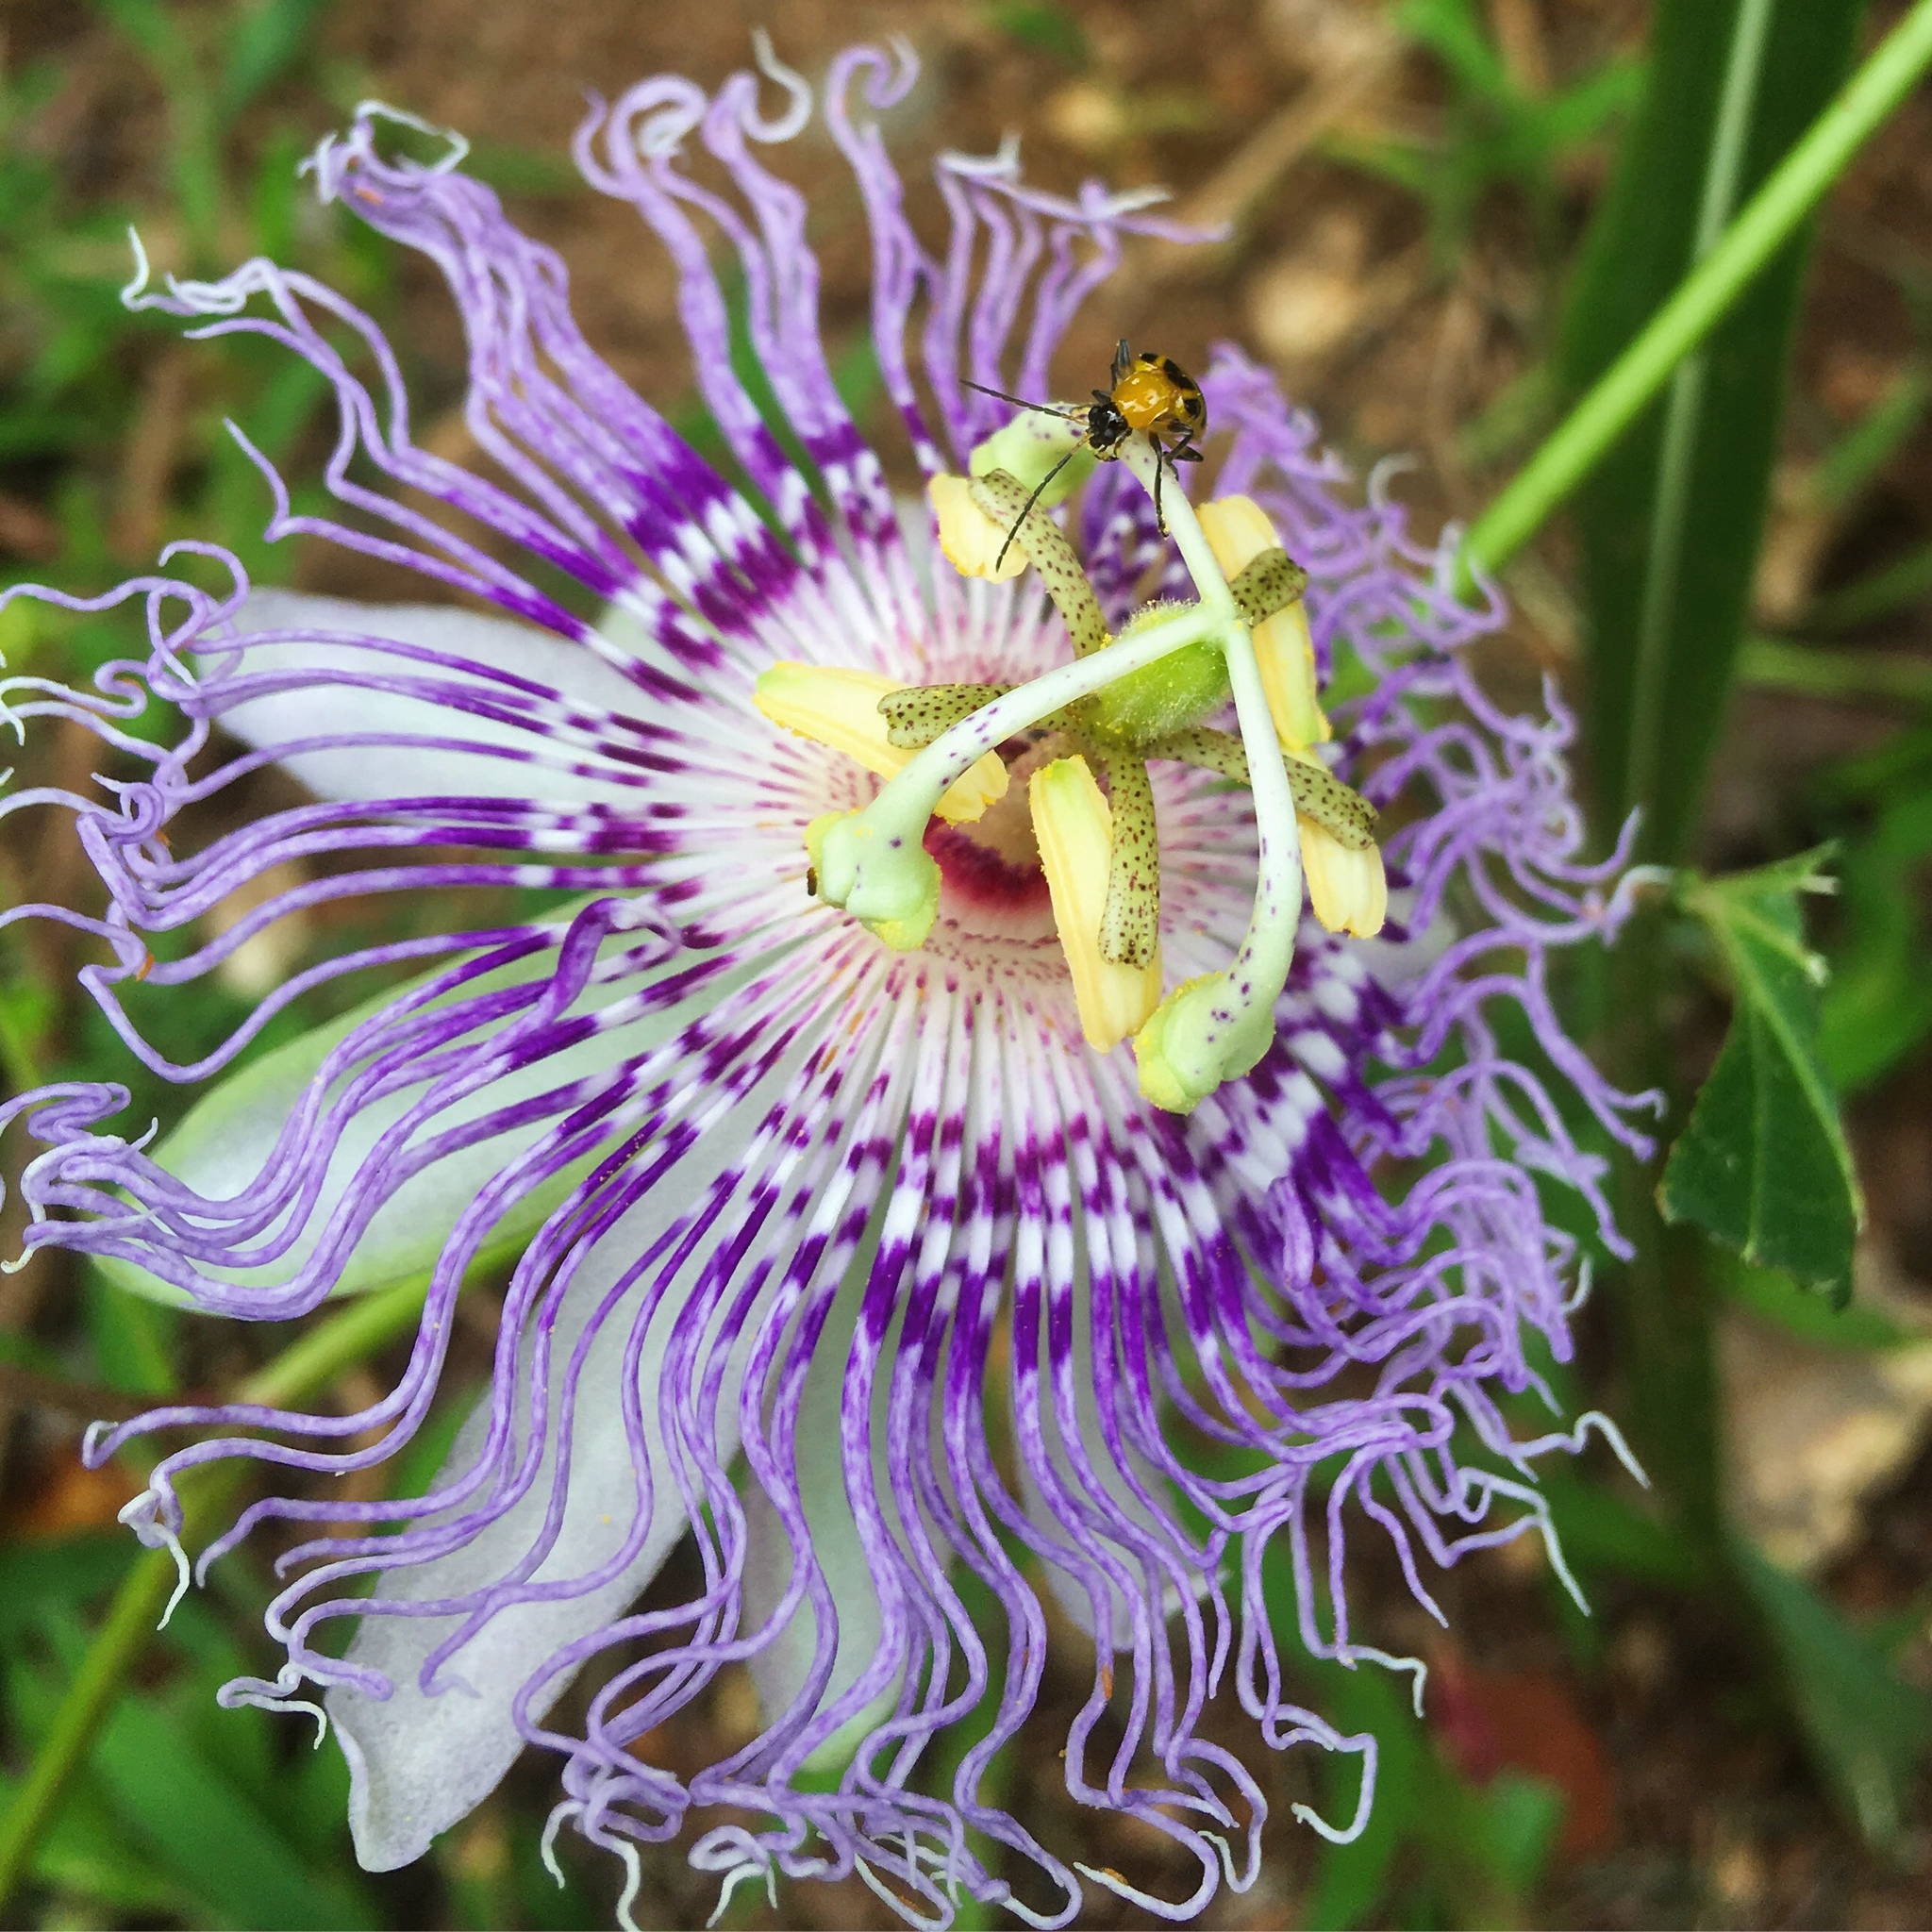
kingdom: Plantae
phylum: Tracheophyta
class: Magnoliopsida
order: Malpighiales
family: Passifloraceae
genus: Passiflora
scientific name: Passiflora incarnata
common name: Apricot-vine
